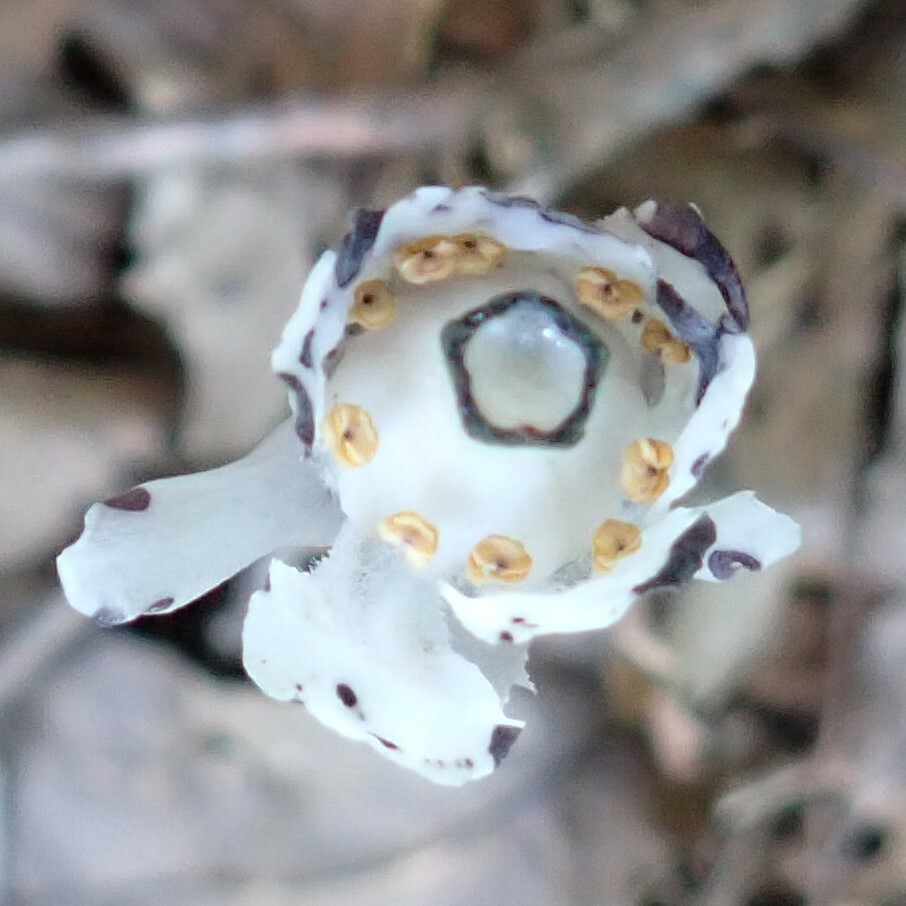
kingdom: Plantae
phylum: Tracheophyta
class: Magnoliopsida
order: Ericales
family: Ericaceae
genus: Monotropa
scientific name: Monotropa uniflora
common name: Convulsion root
